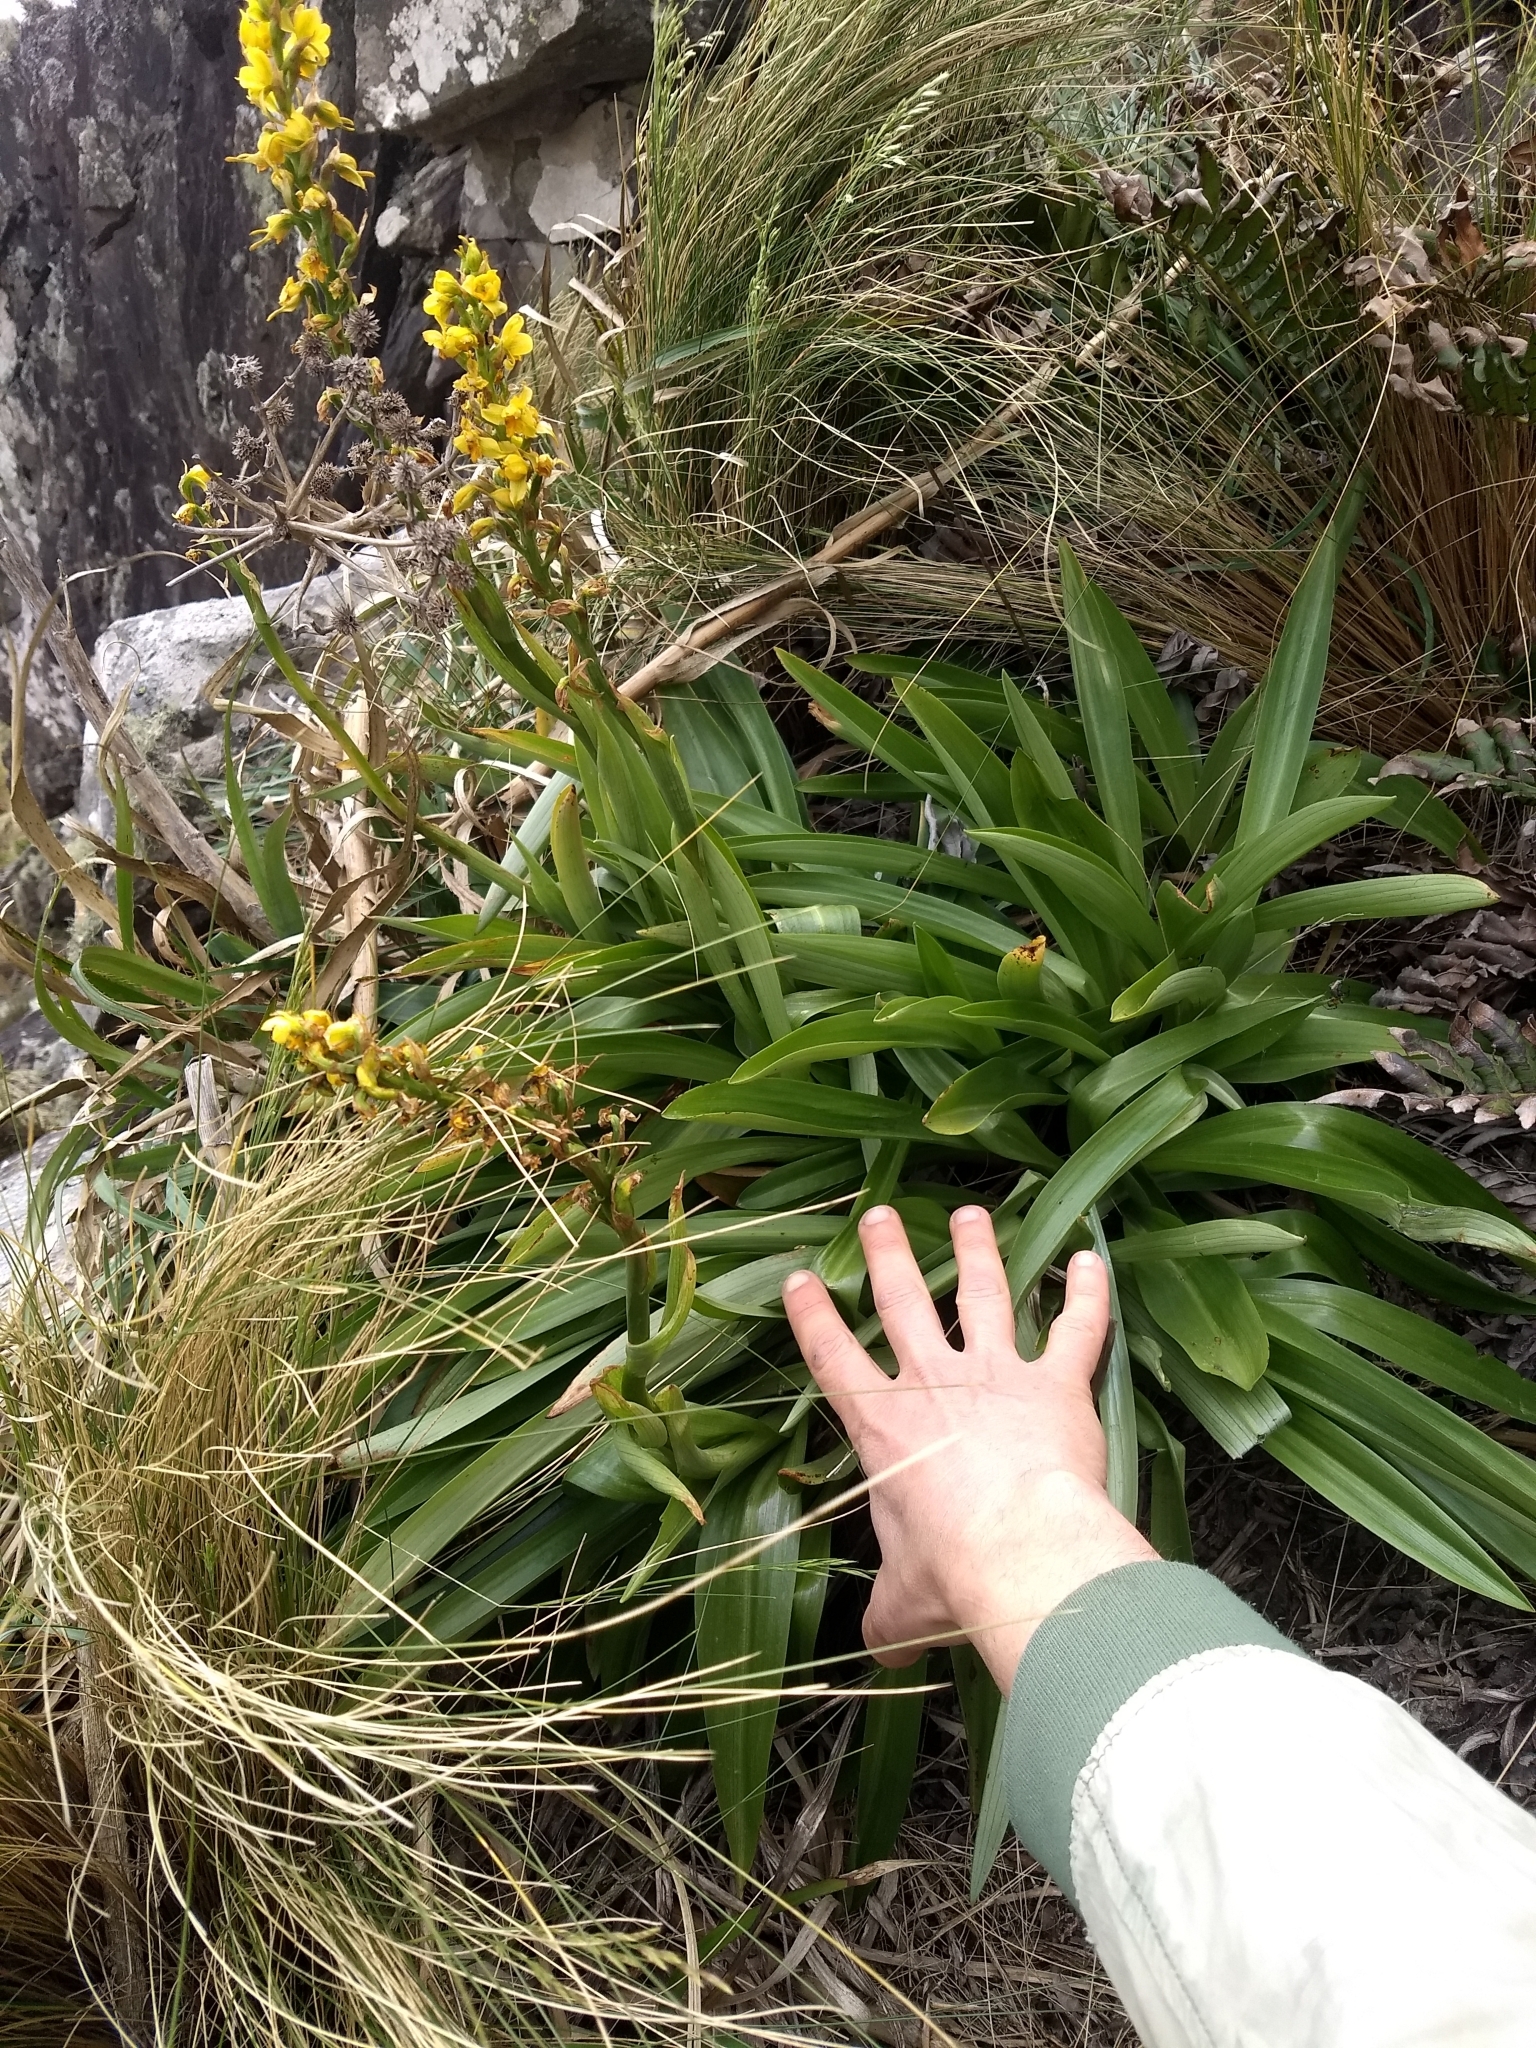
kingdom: Plantae
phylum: Tracheophyta
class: Liliopsida
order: Asparagales
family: Orchidaceae
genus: Gavilea
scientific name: Gavilea odoratissima
